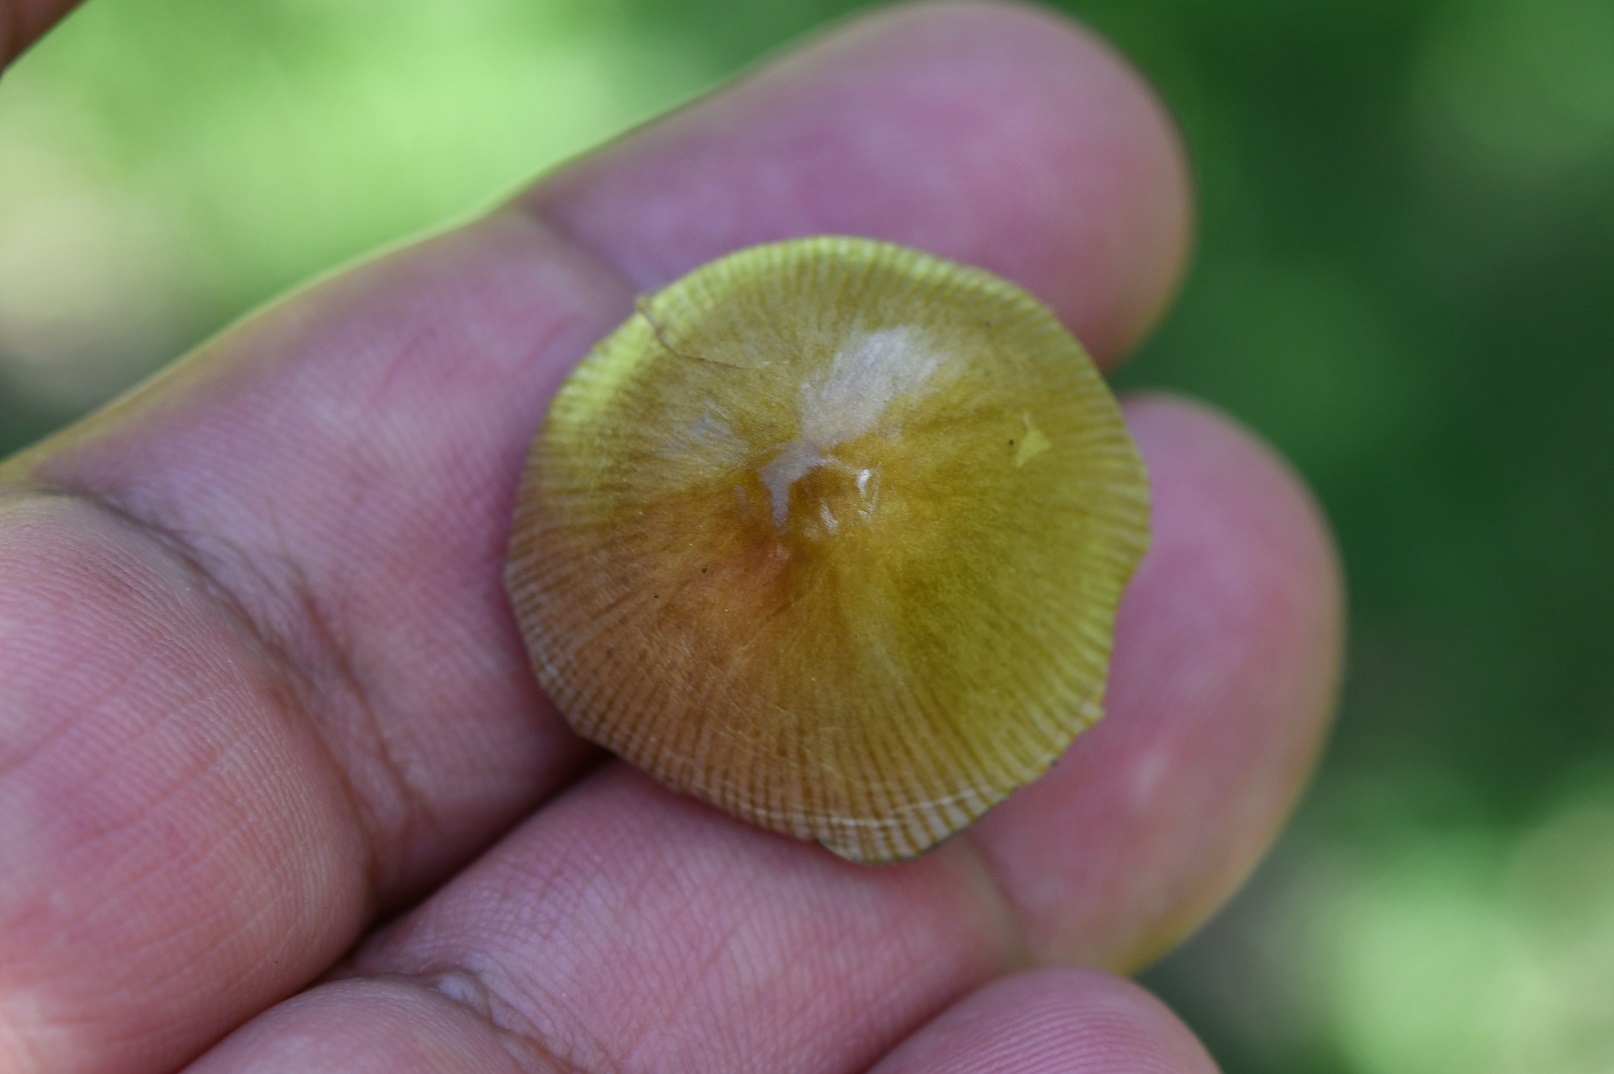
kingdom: Fungi
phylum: Basidiomycota
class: Agaricomycetes
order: Agaricales
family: Bolbitiaceae
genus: Bolbitius
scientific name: Bolbitius titubans
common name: Yellow fieldcap
